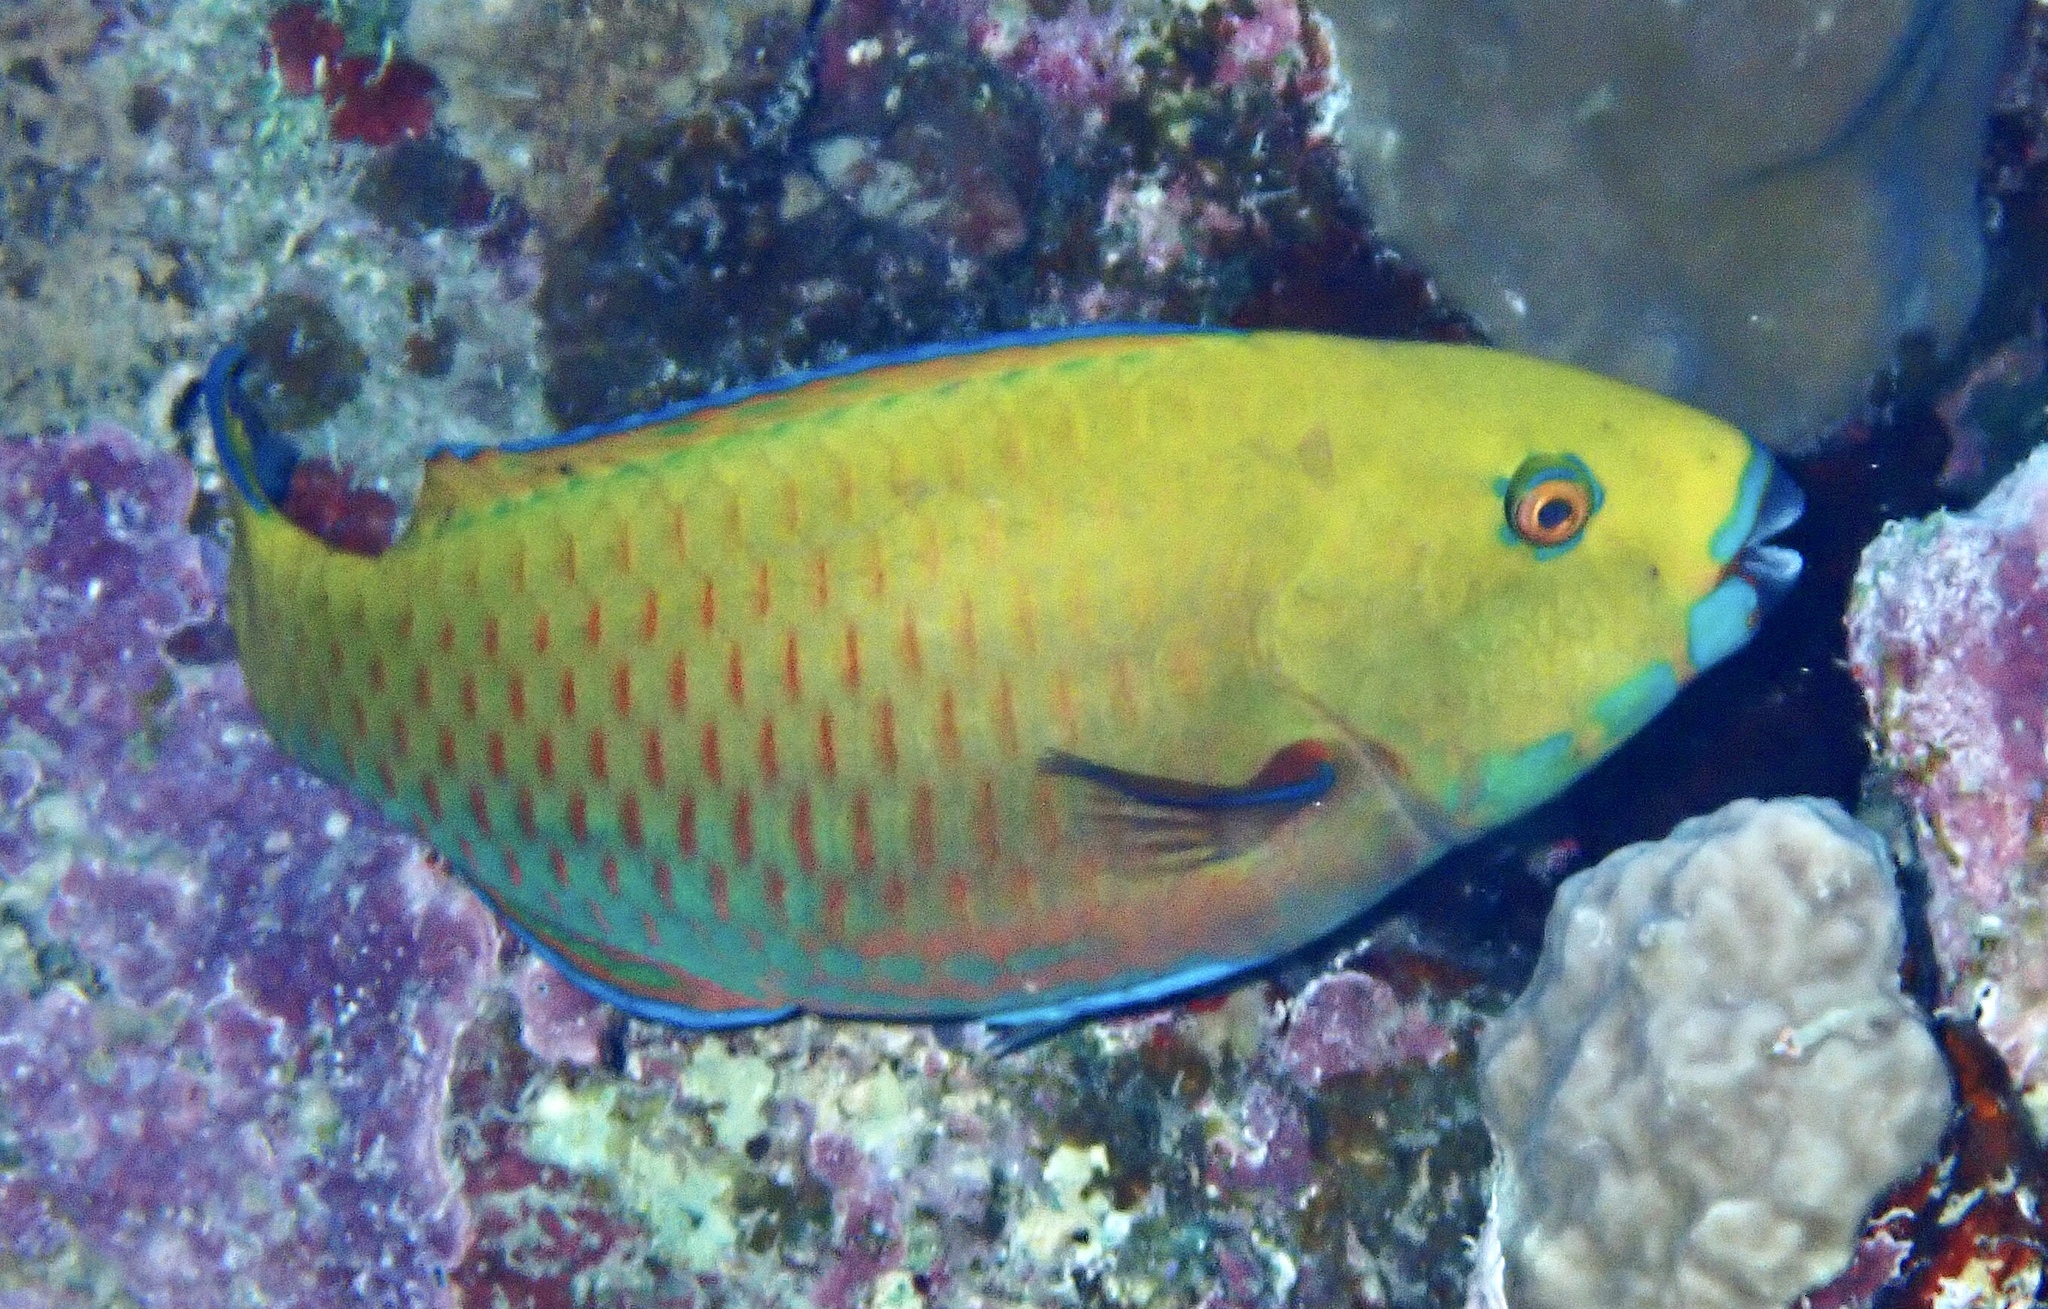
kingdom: Animalia
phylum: Chordata
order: Perciformes
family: Scaridae
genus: Chlorurus
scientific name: Chlorurus gibbus
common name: Heavybeak parrotfish
